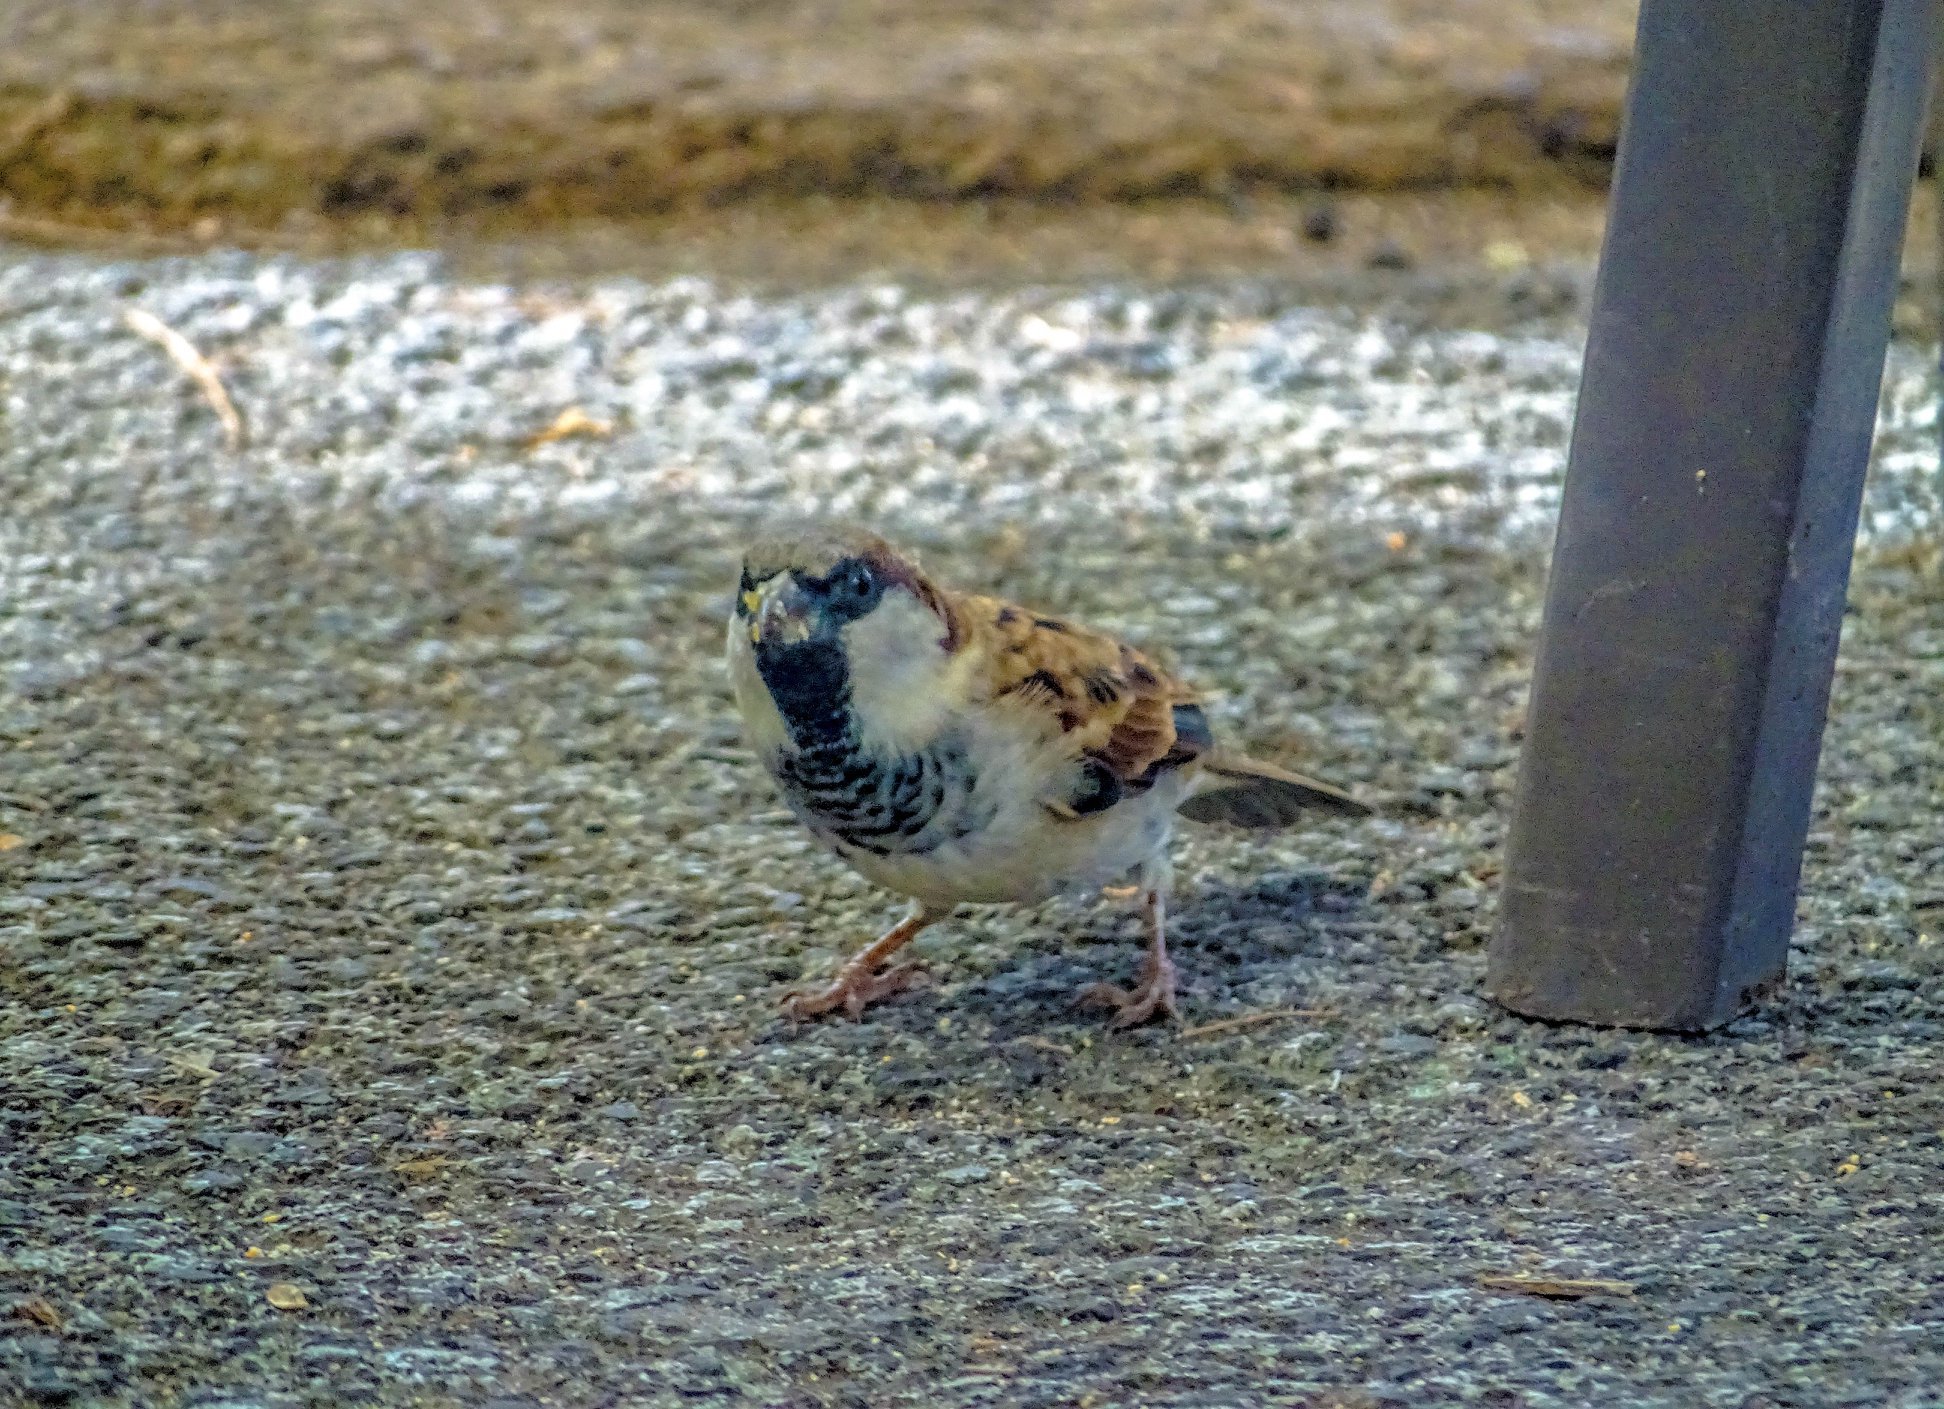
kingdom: Animalia
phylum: Chordata
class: Aves
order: Passeriformes
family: Passeridae
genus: Passer
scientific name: Passer domesticus
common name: House sparrow
